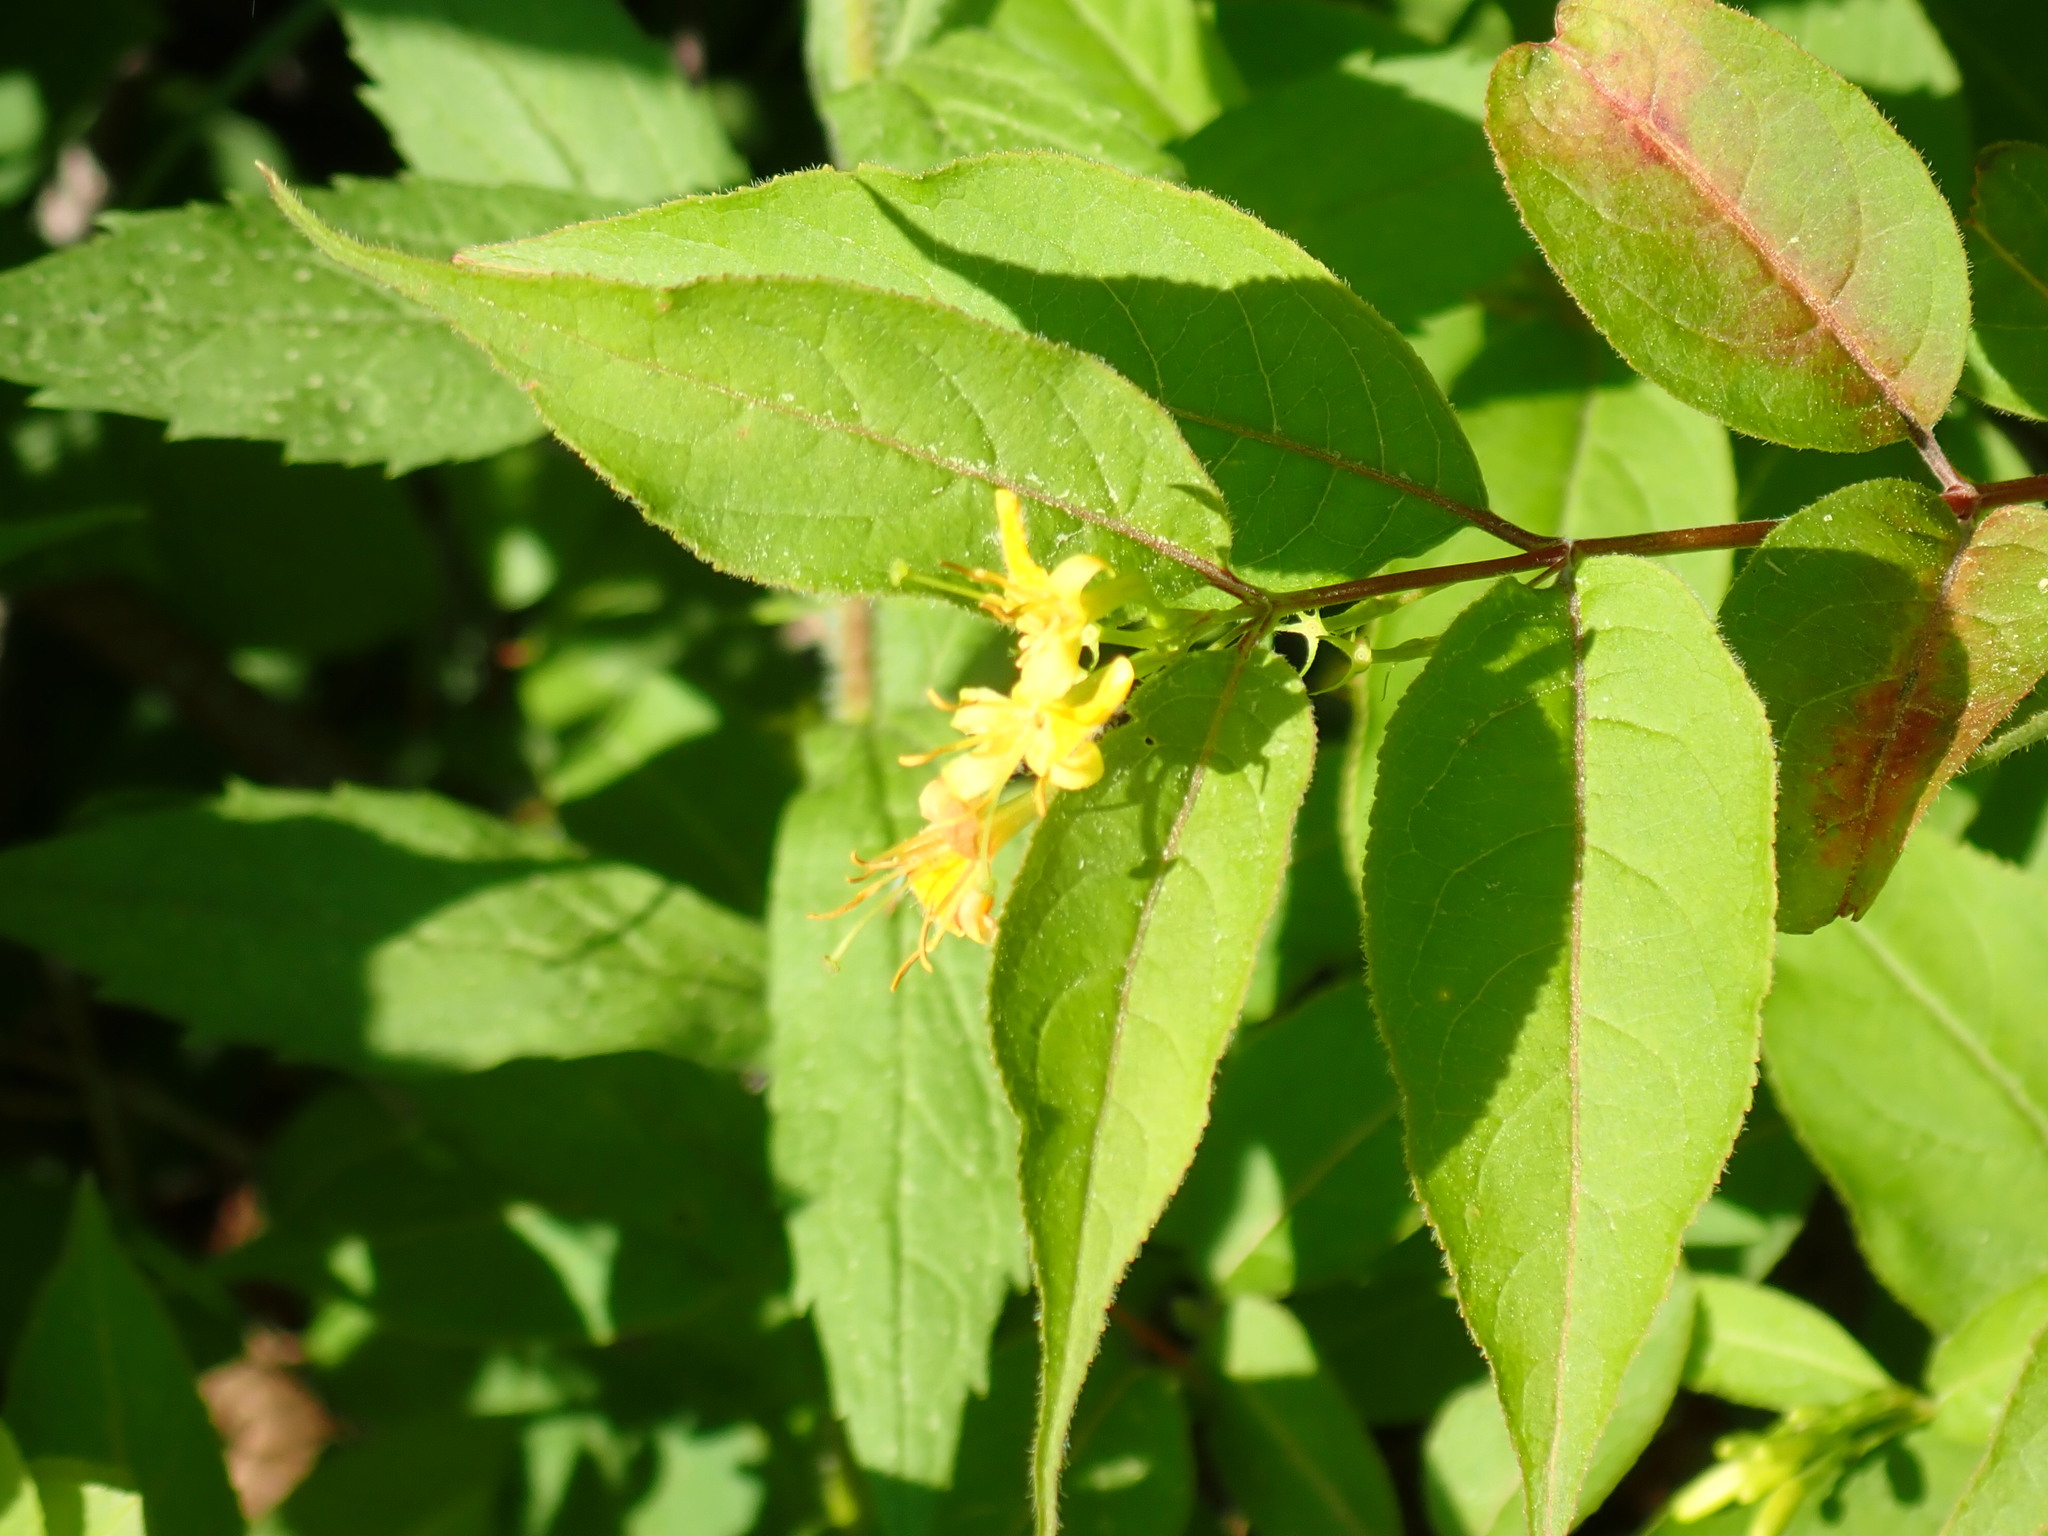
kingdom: Plantae
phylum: Tracheophyta
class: Magnoliopsida
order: Dipsacales
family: Caprifoliaceae
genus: Diervilla
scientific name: Diervilla lonicera
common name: Bush-honeysuckle
